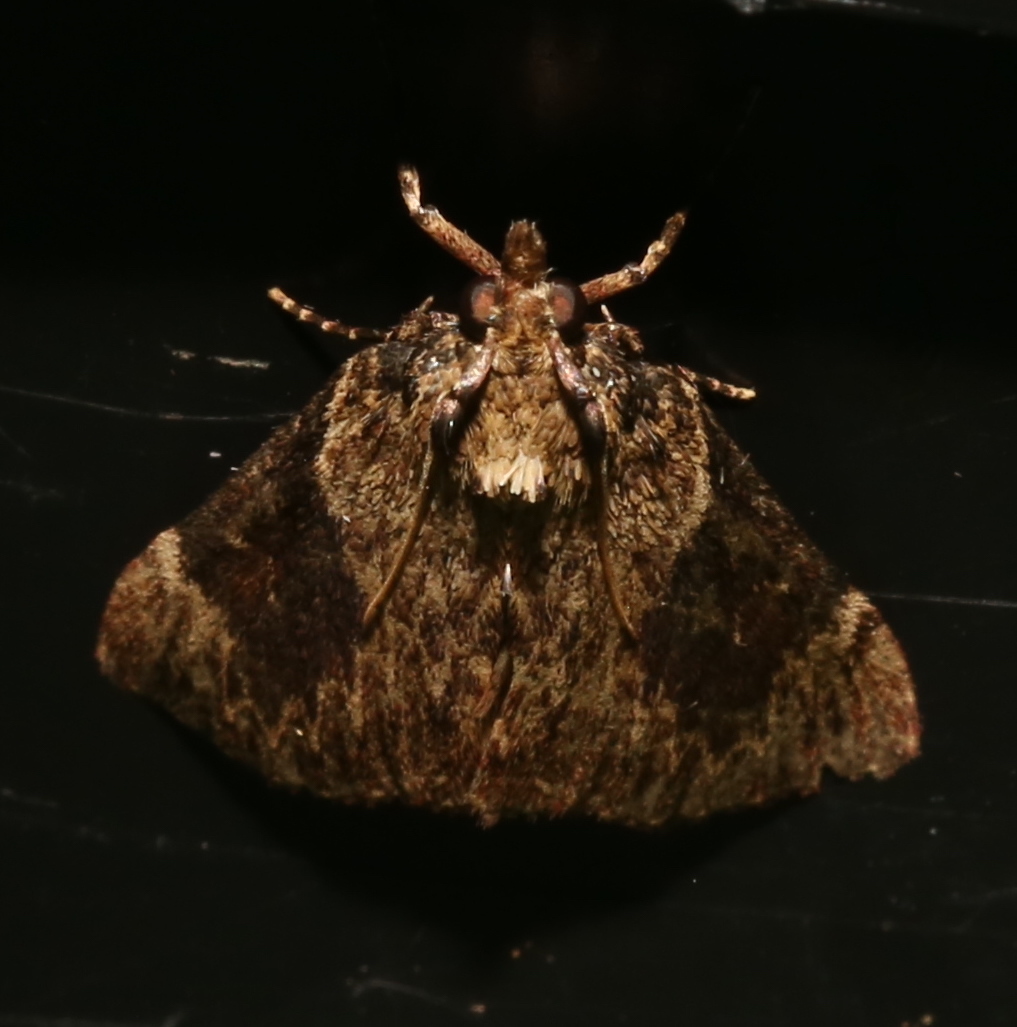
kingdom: Animalia
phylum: Arthropoda
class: Insecta
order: Lepidoptera
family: Pyralidae
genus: Omphalocera
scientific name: Omphalocera cariosa
